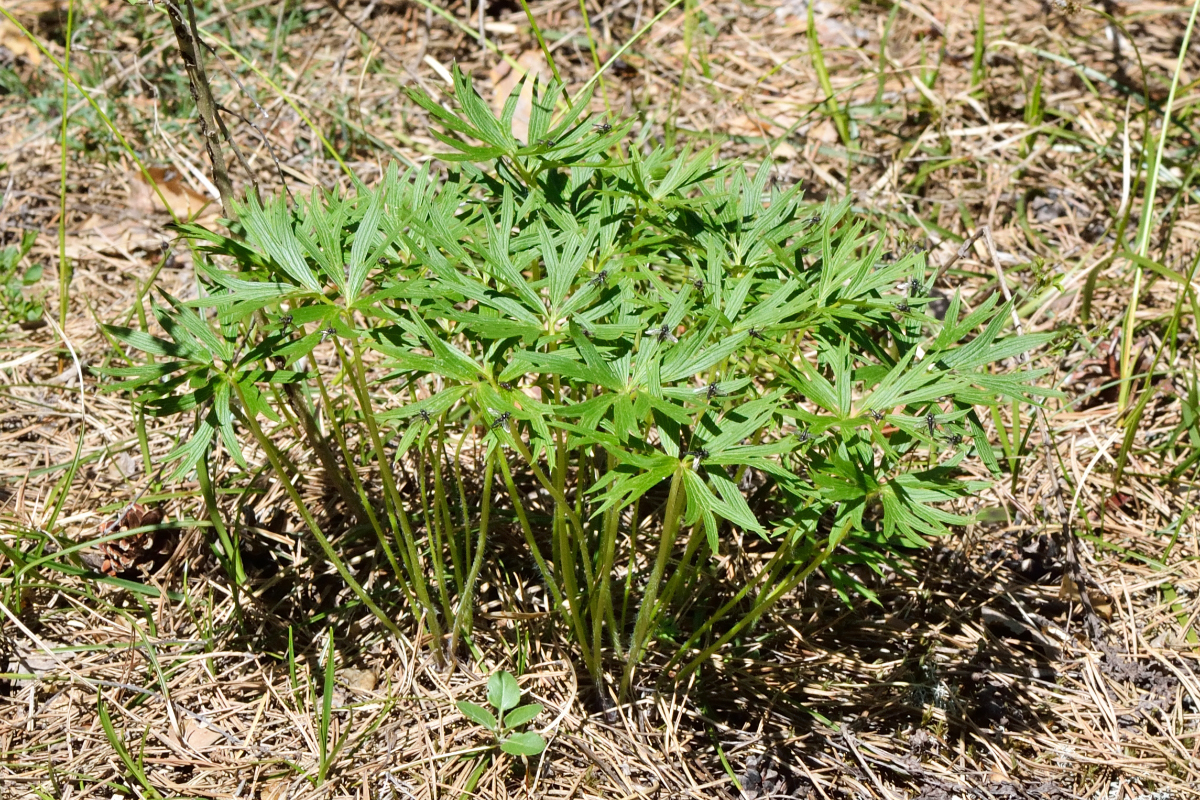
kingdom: Plantae
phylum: Tracheophyta
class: Magnoliopsida
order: Ranunculales
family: Ranunculaceae
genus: Pulsatilla
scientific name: Pulsatilla patens
